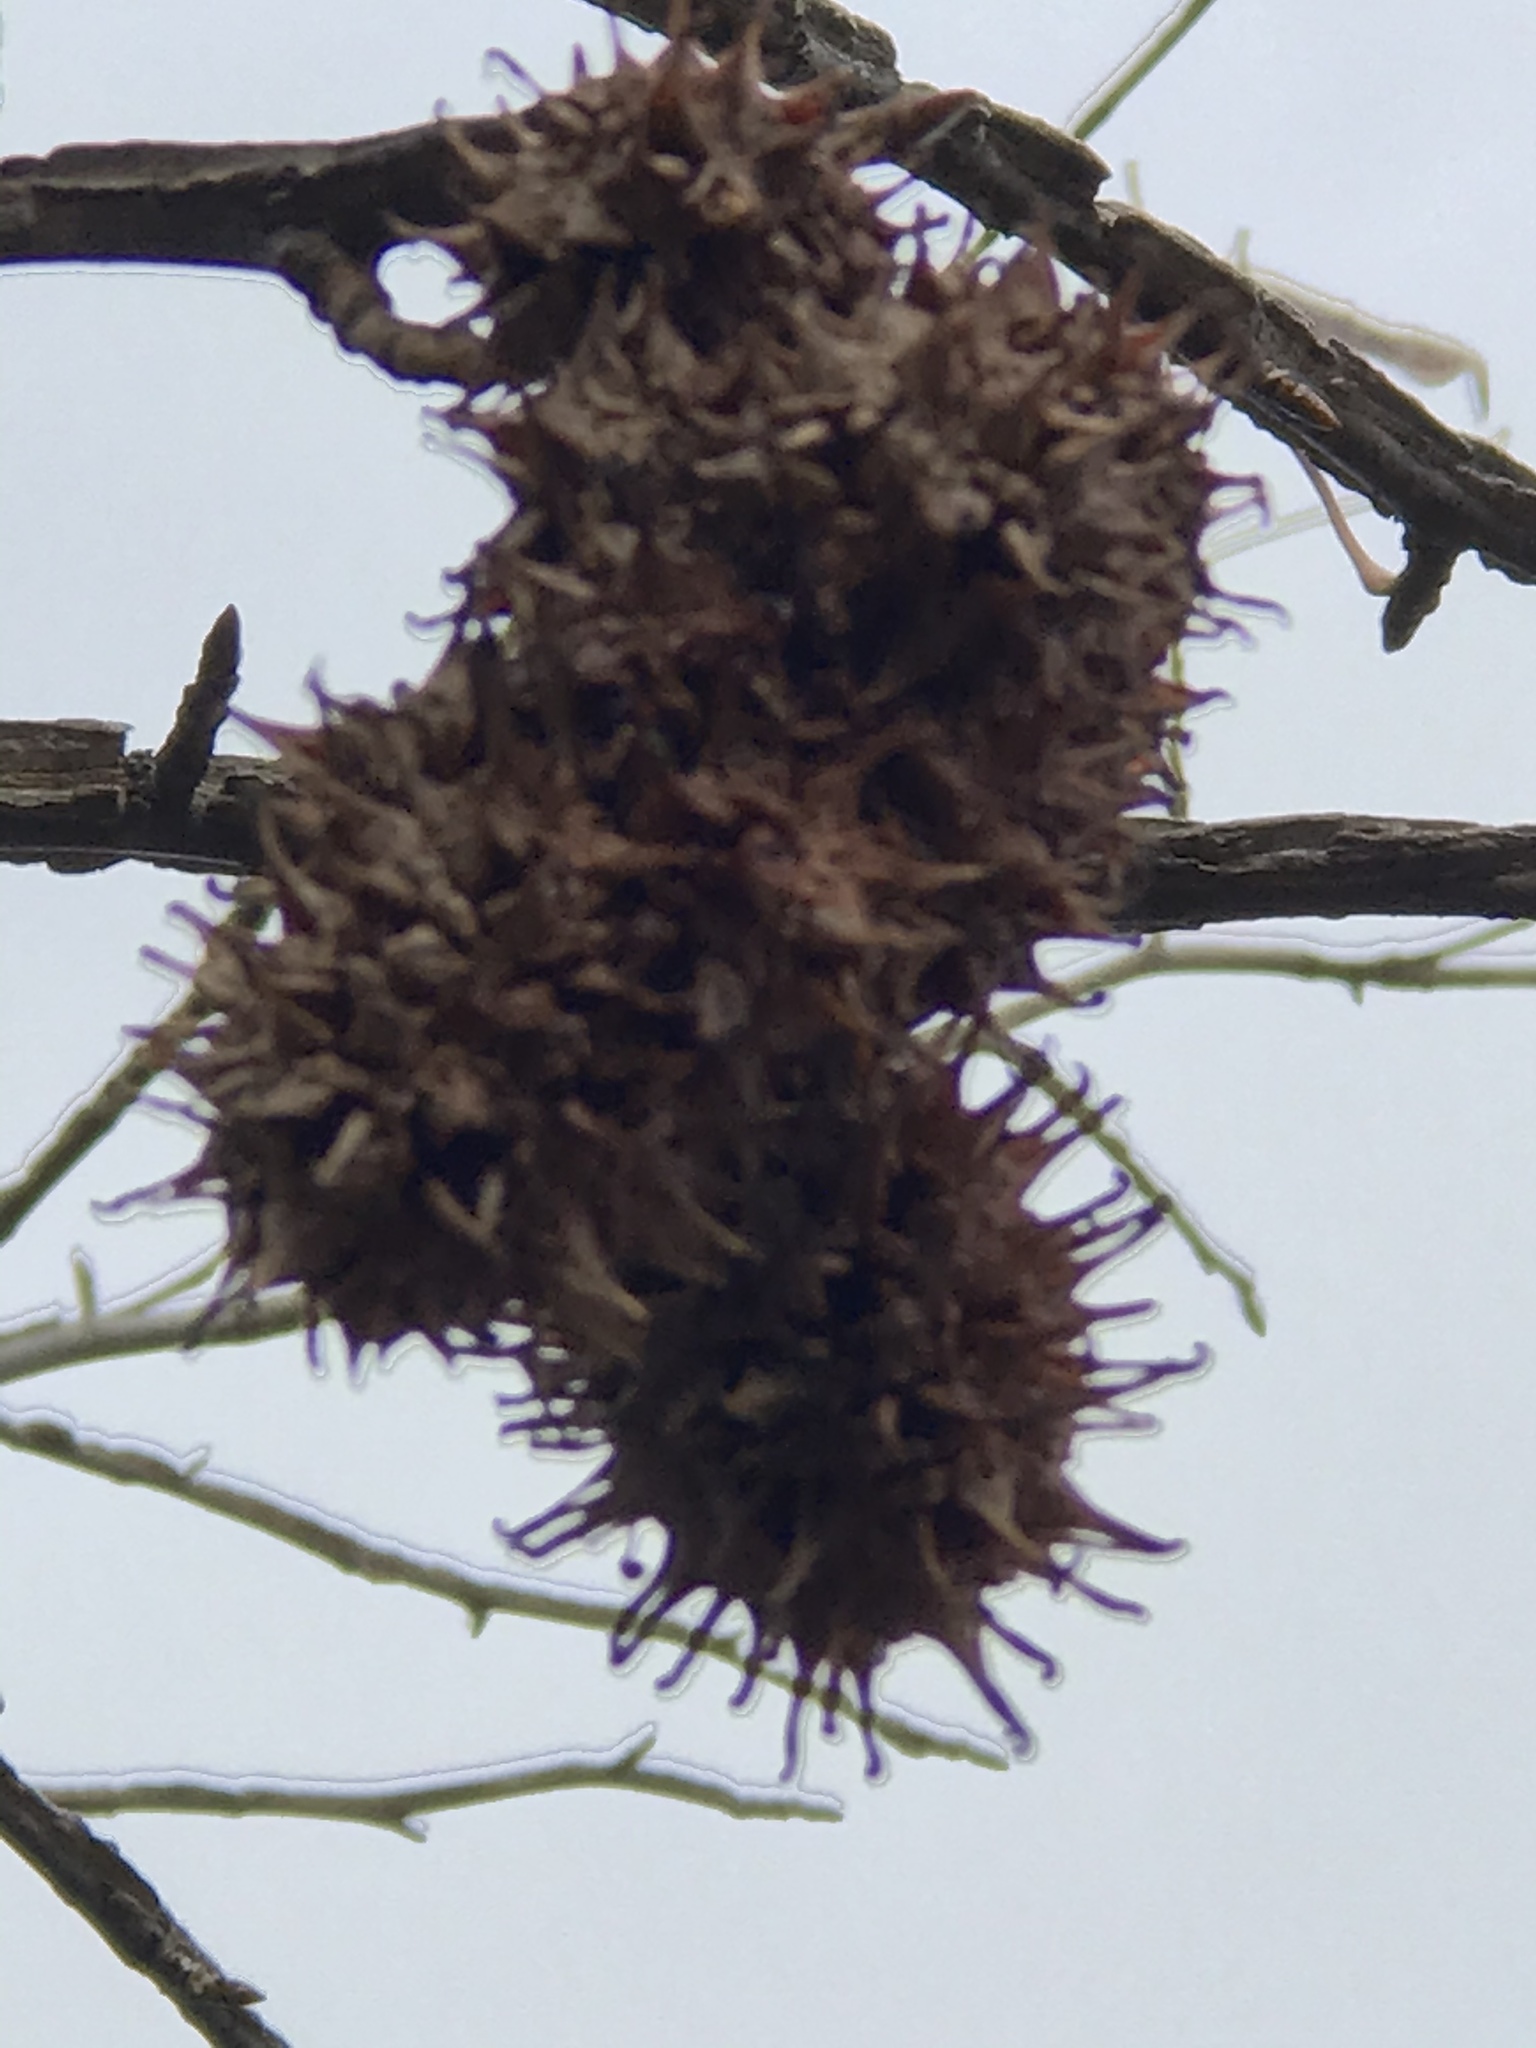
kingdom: Plantae
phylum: Tracheophyta
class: Magnoliopsida
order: Saxifragales
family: Altingiaceae
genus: Liquidambar
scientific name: Liquidambar styraciflua
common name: Sweet gum
